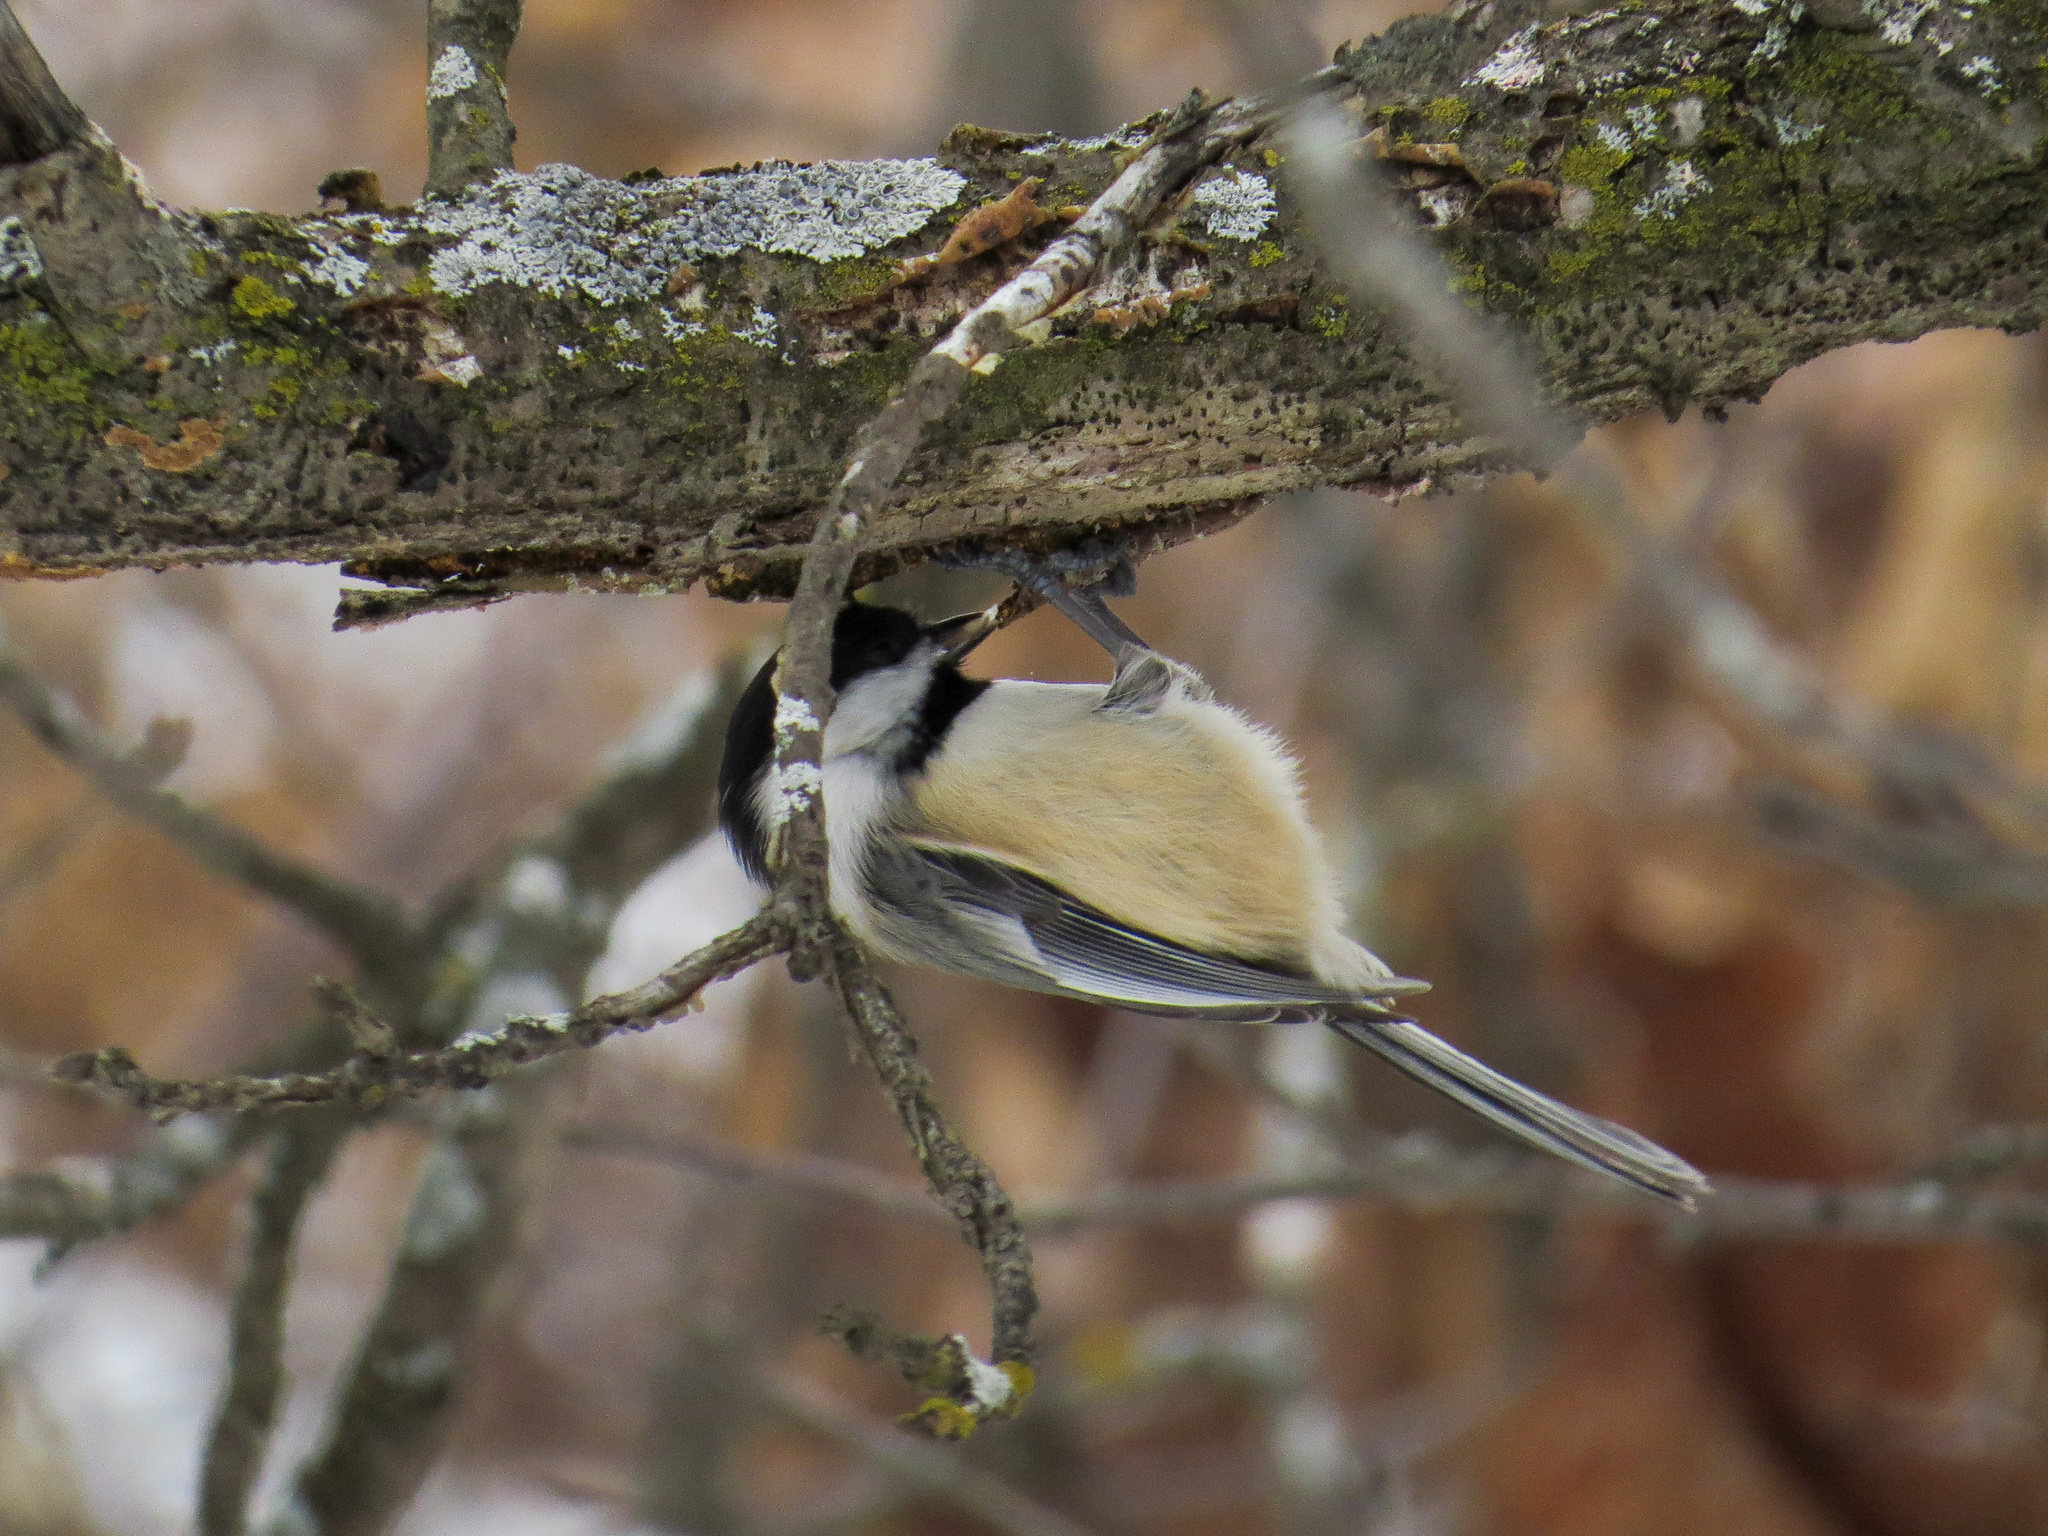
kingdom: Animalia
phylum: Chordata
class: Aves
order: Passeriformes
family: Paridae
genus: Poecile
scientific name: Poecile atricapillus
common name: Black-capped chickadee
